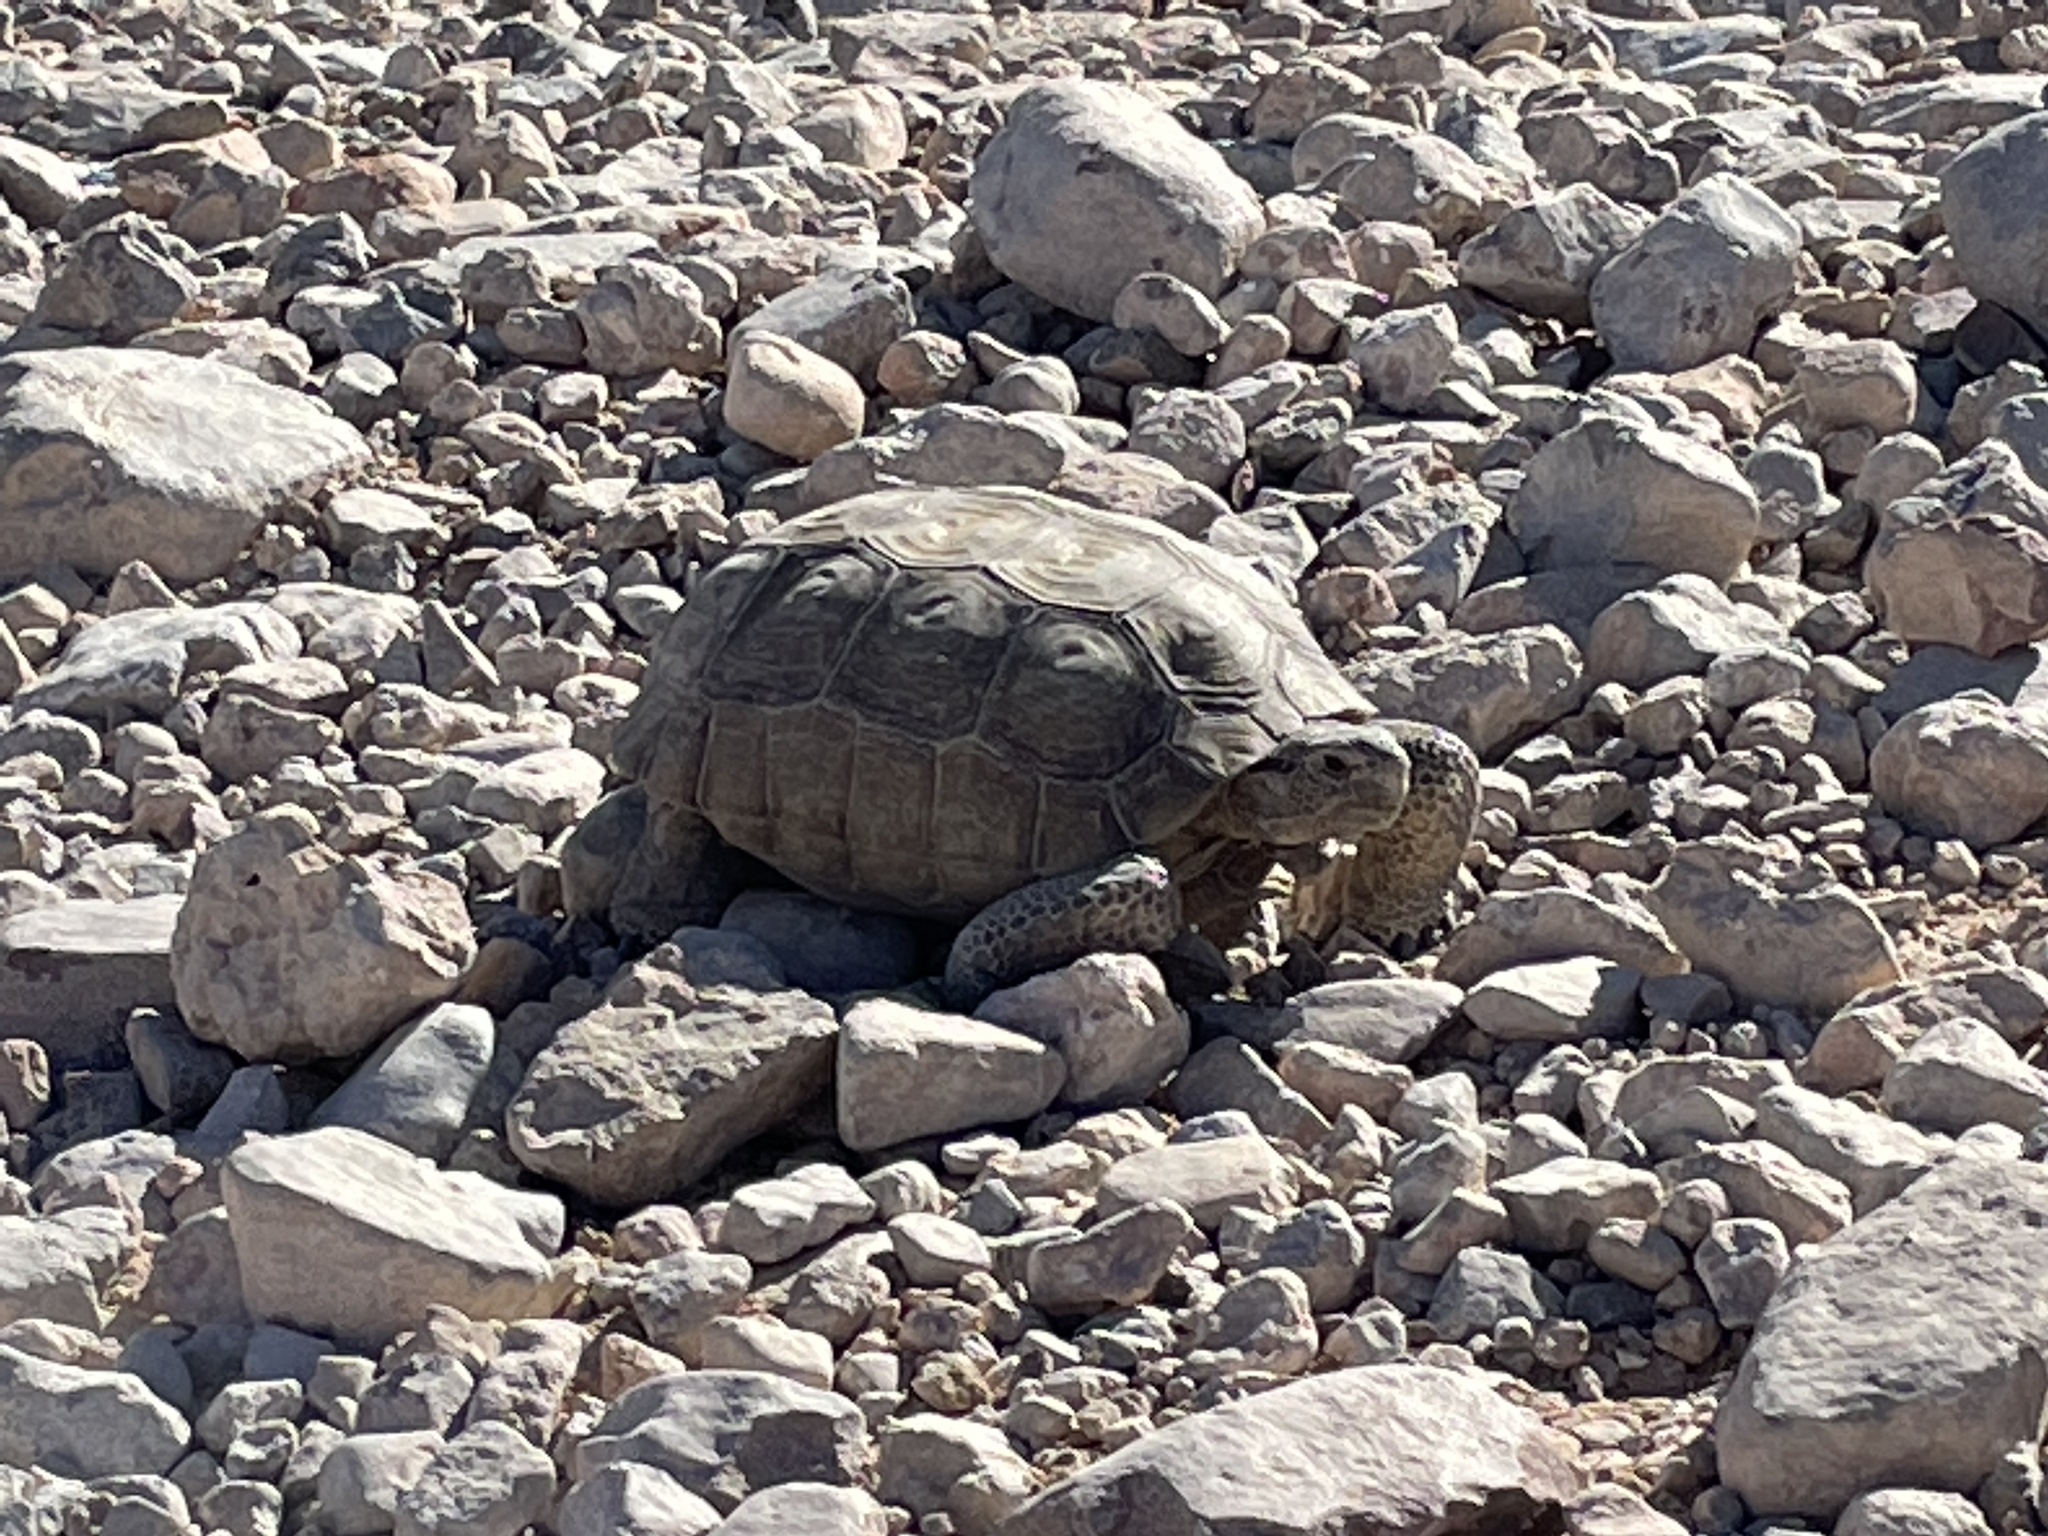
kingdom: Animalia
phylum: Chordata
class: Testudines
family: Testudinidae
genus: Gopherus
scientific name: Gopherus agassizii
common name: Mojave desert tortoise
